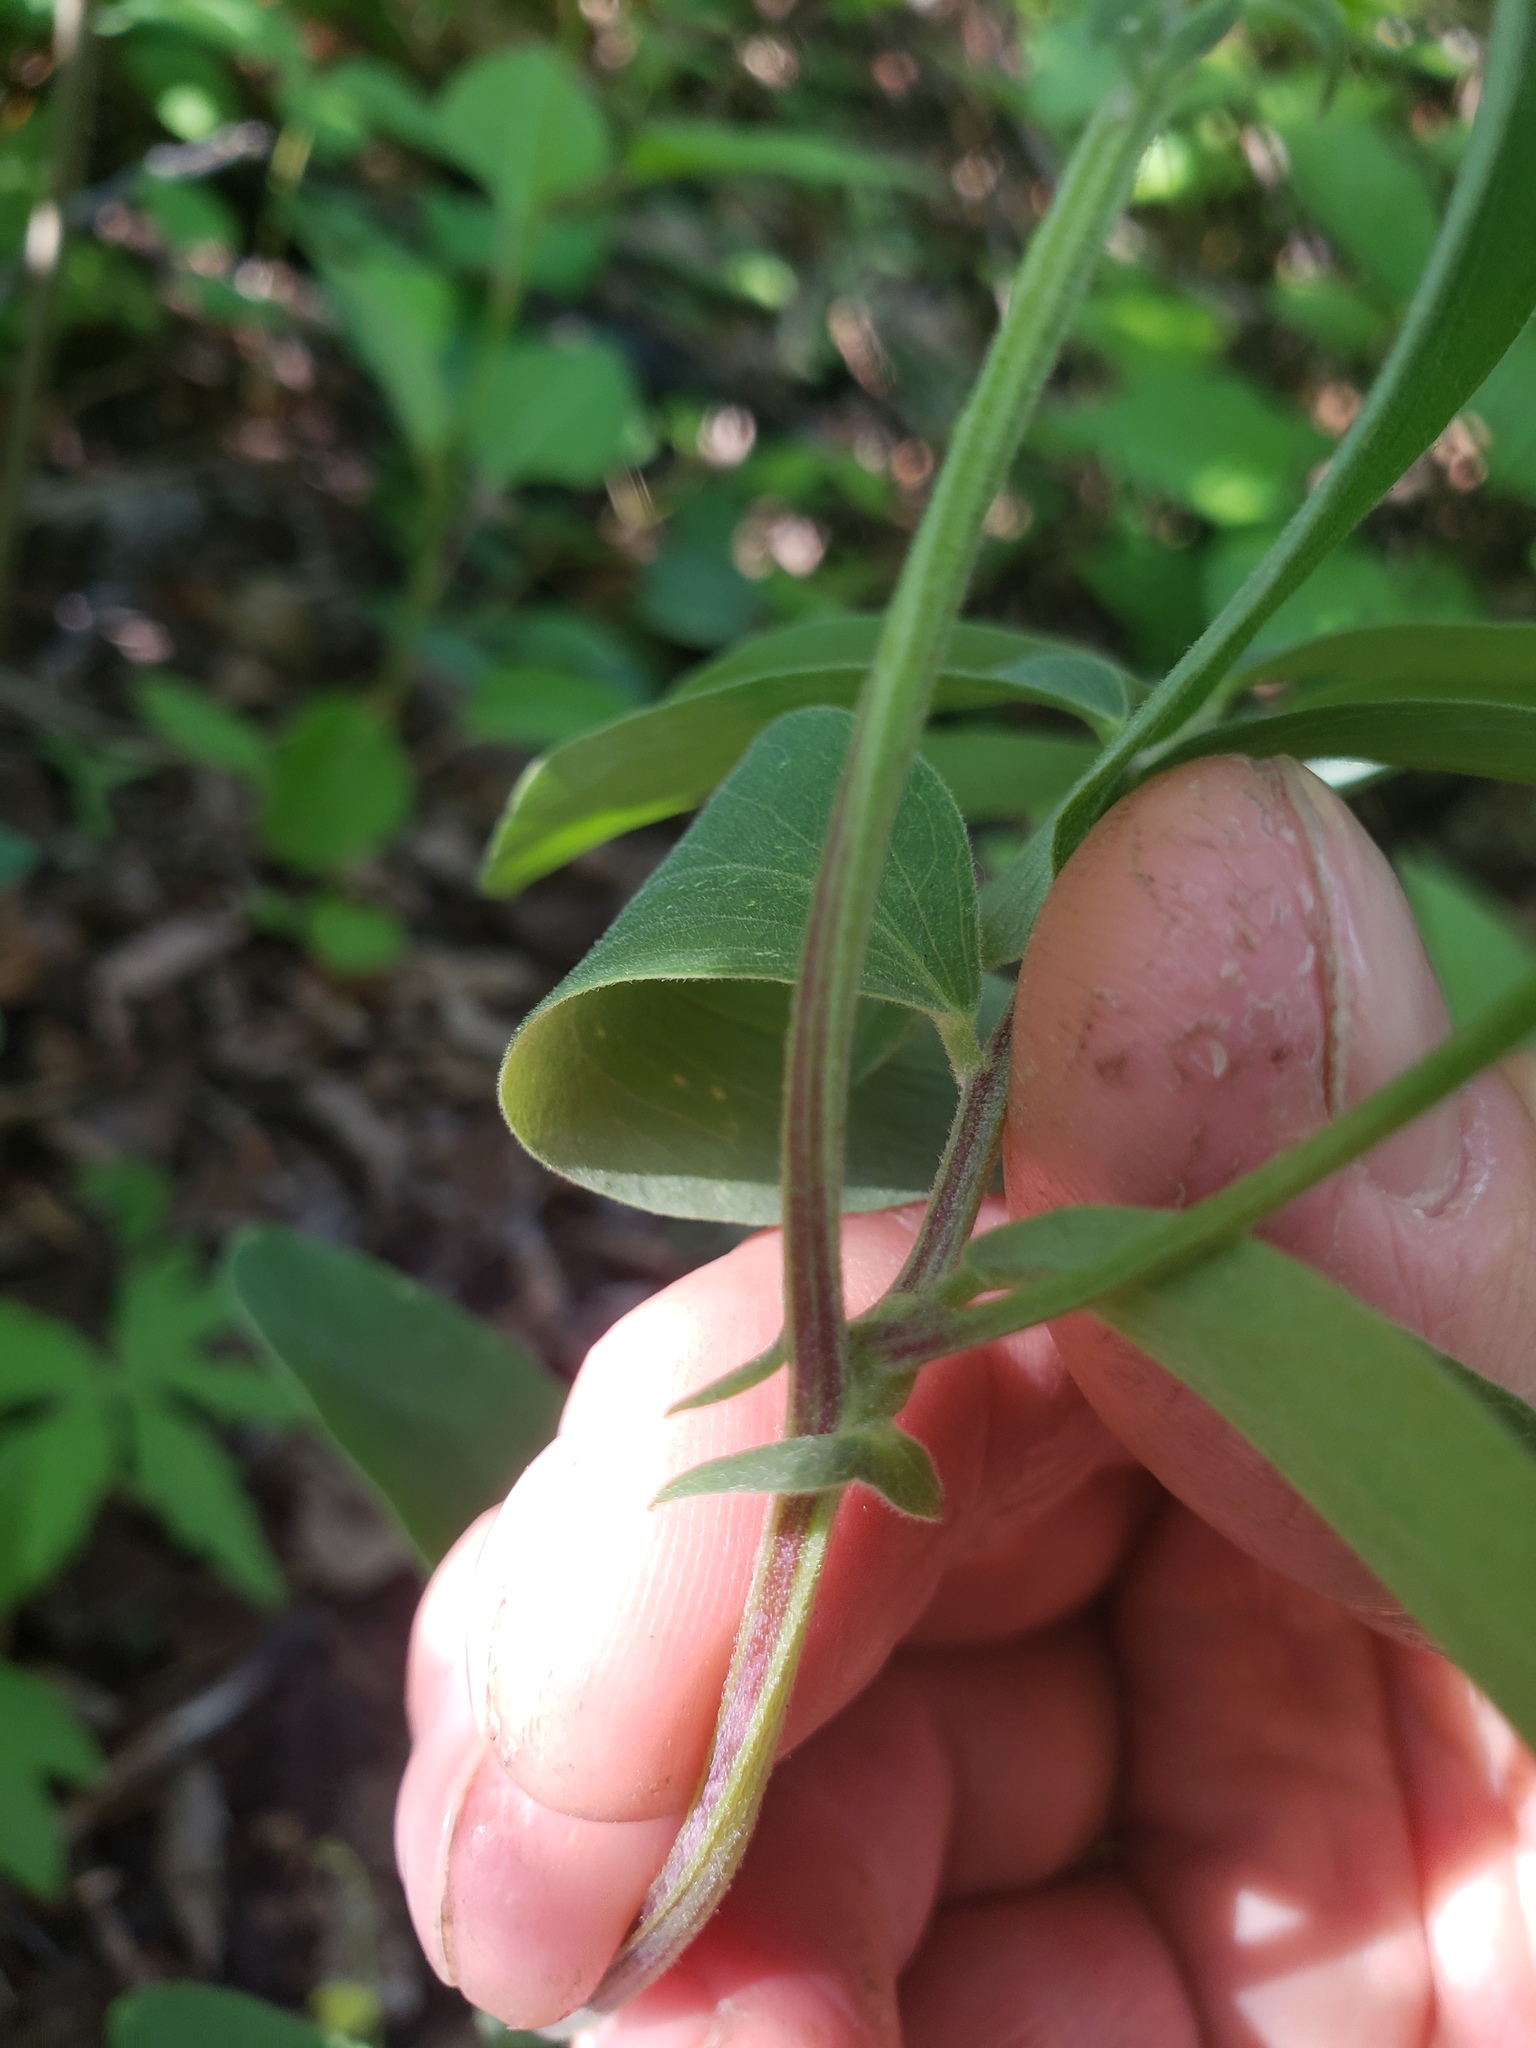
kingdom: Plantae
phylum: Tracheophyta
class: Magnoliopsida
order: Fabales
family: Fabaceae
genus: Lathyrus
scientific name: Lathyrus venosus
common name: Forest-pea
